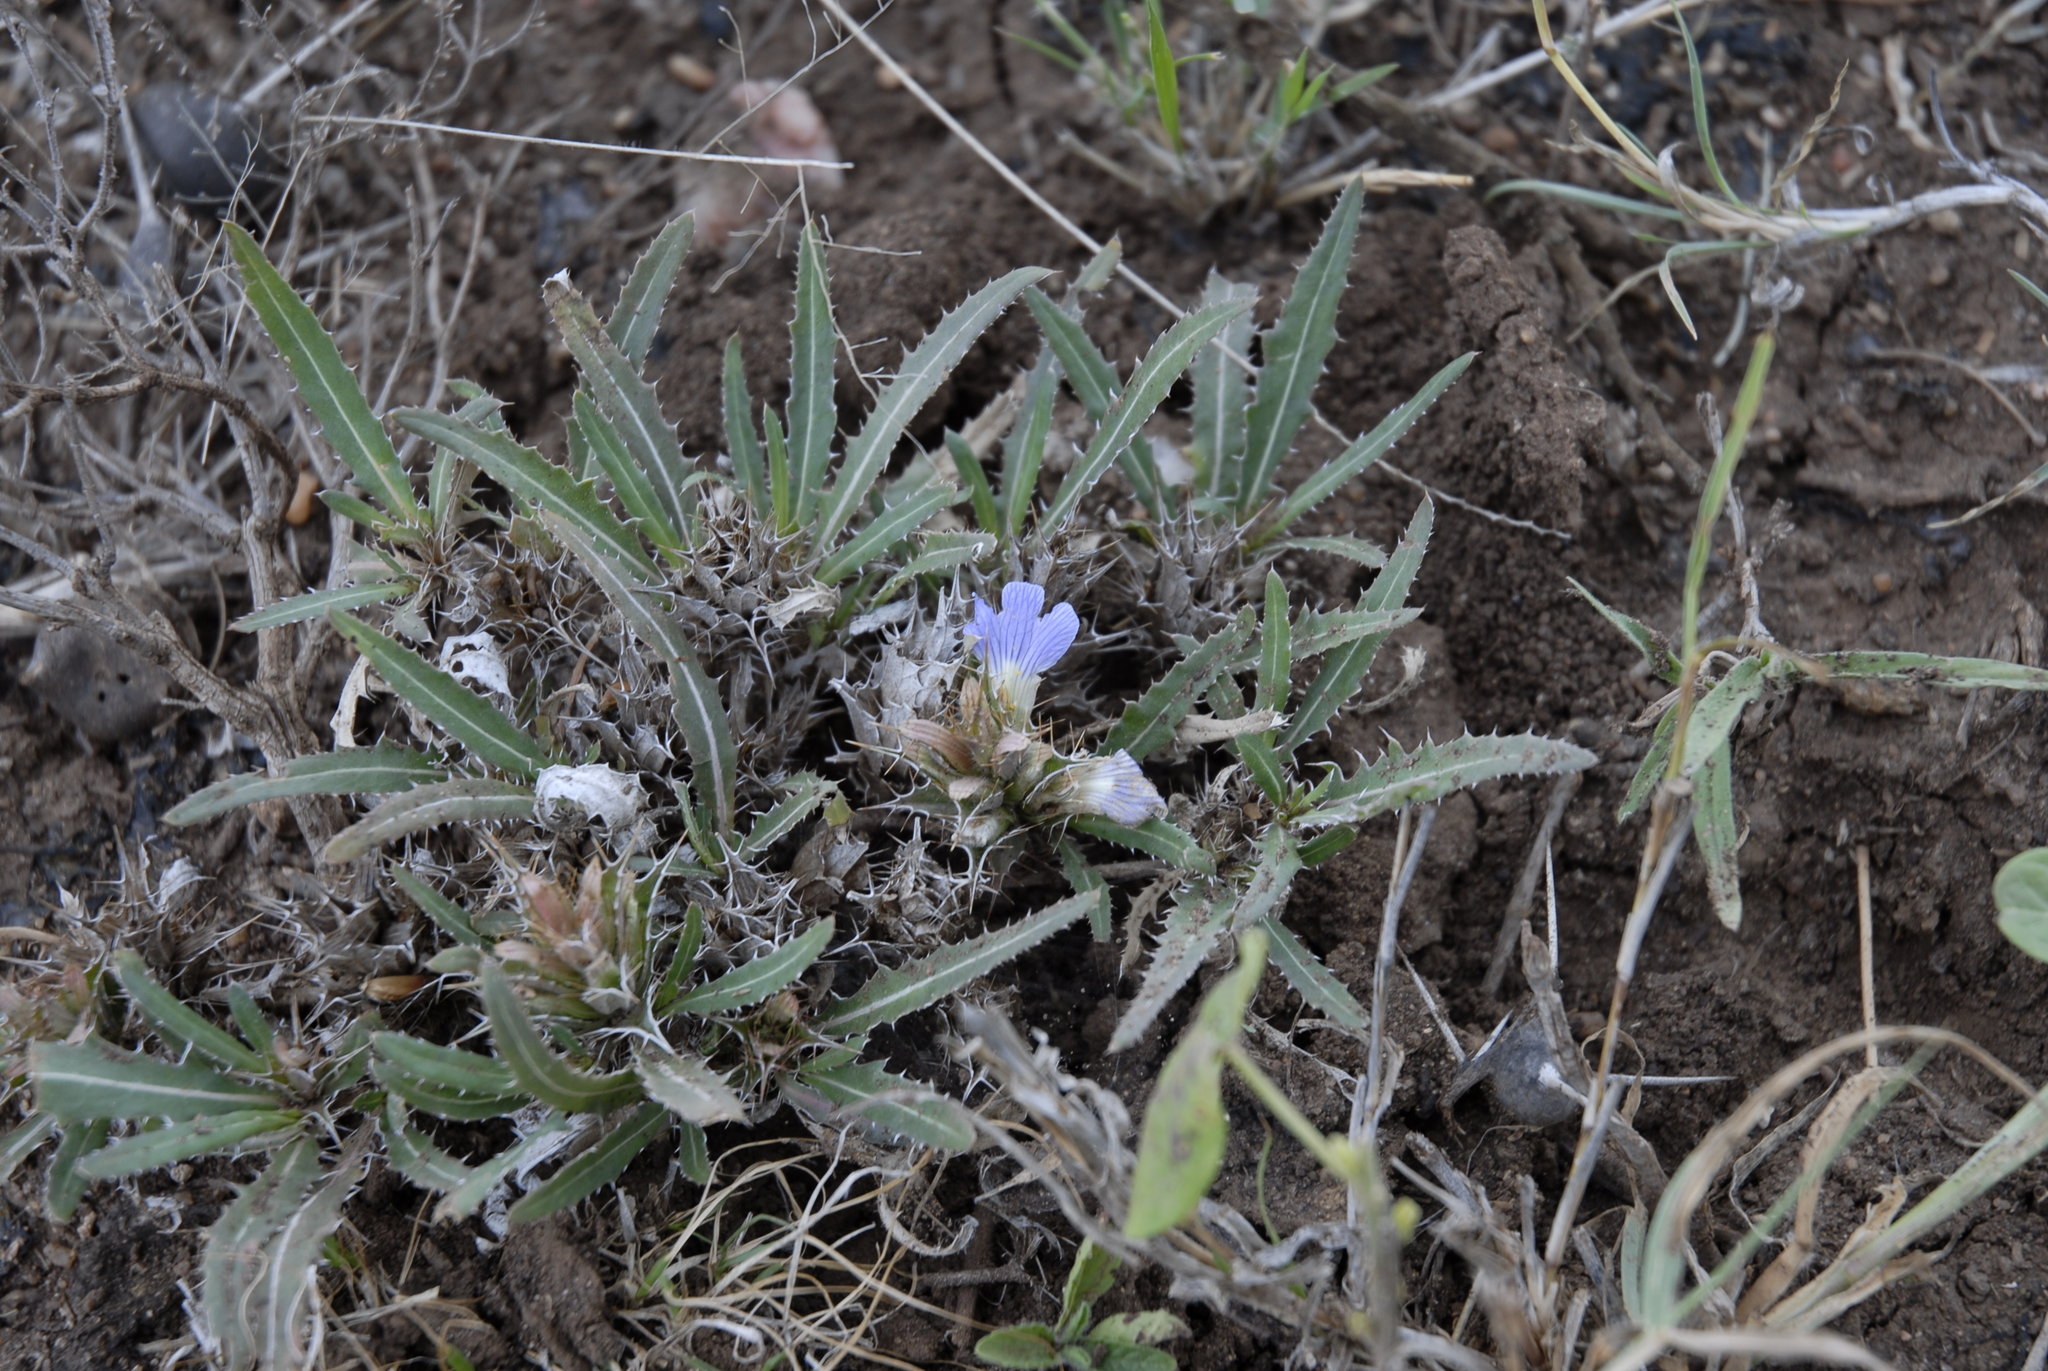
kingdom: Plantae
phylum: Tracheophyta
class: Magnoliopsida
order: Lamiales
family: Acanthaceae
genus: Blepharis
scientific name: Blepharis boranensis
